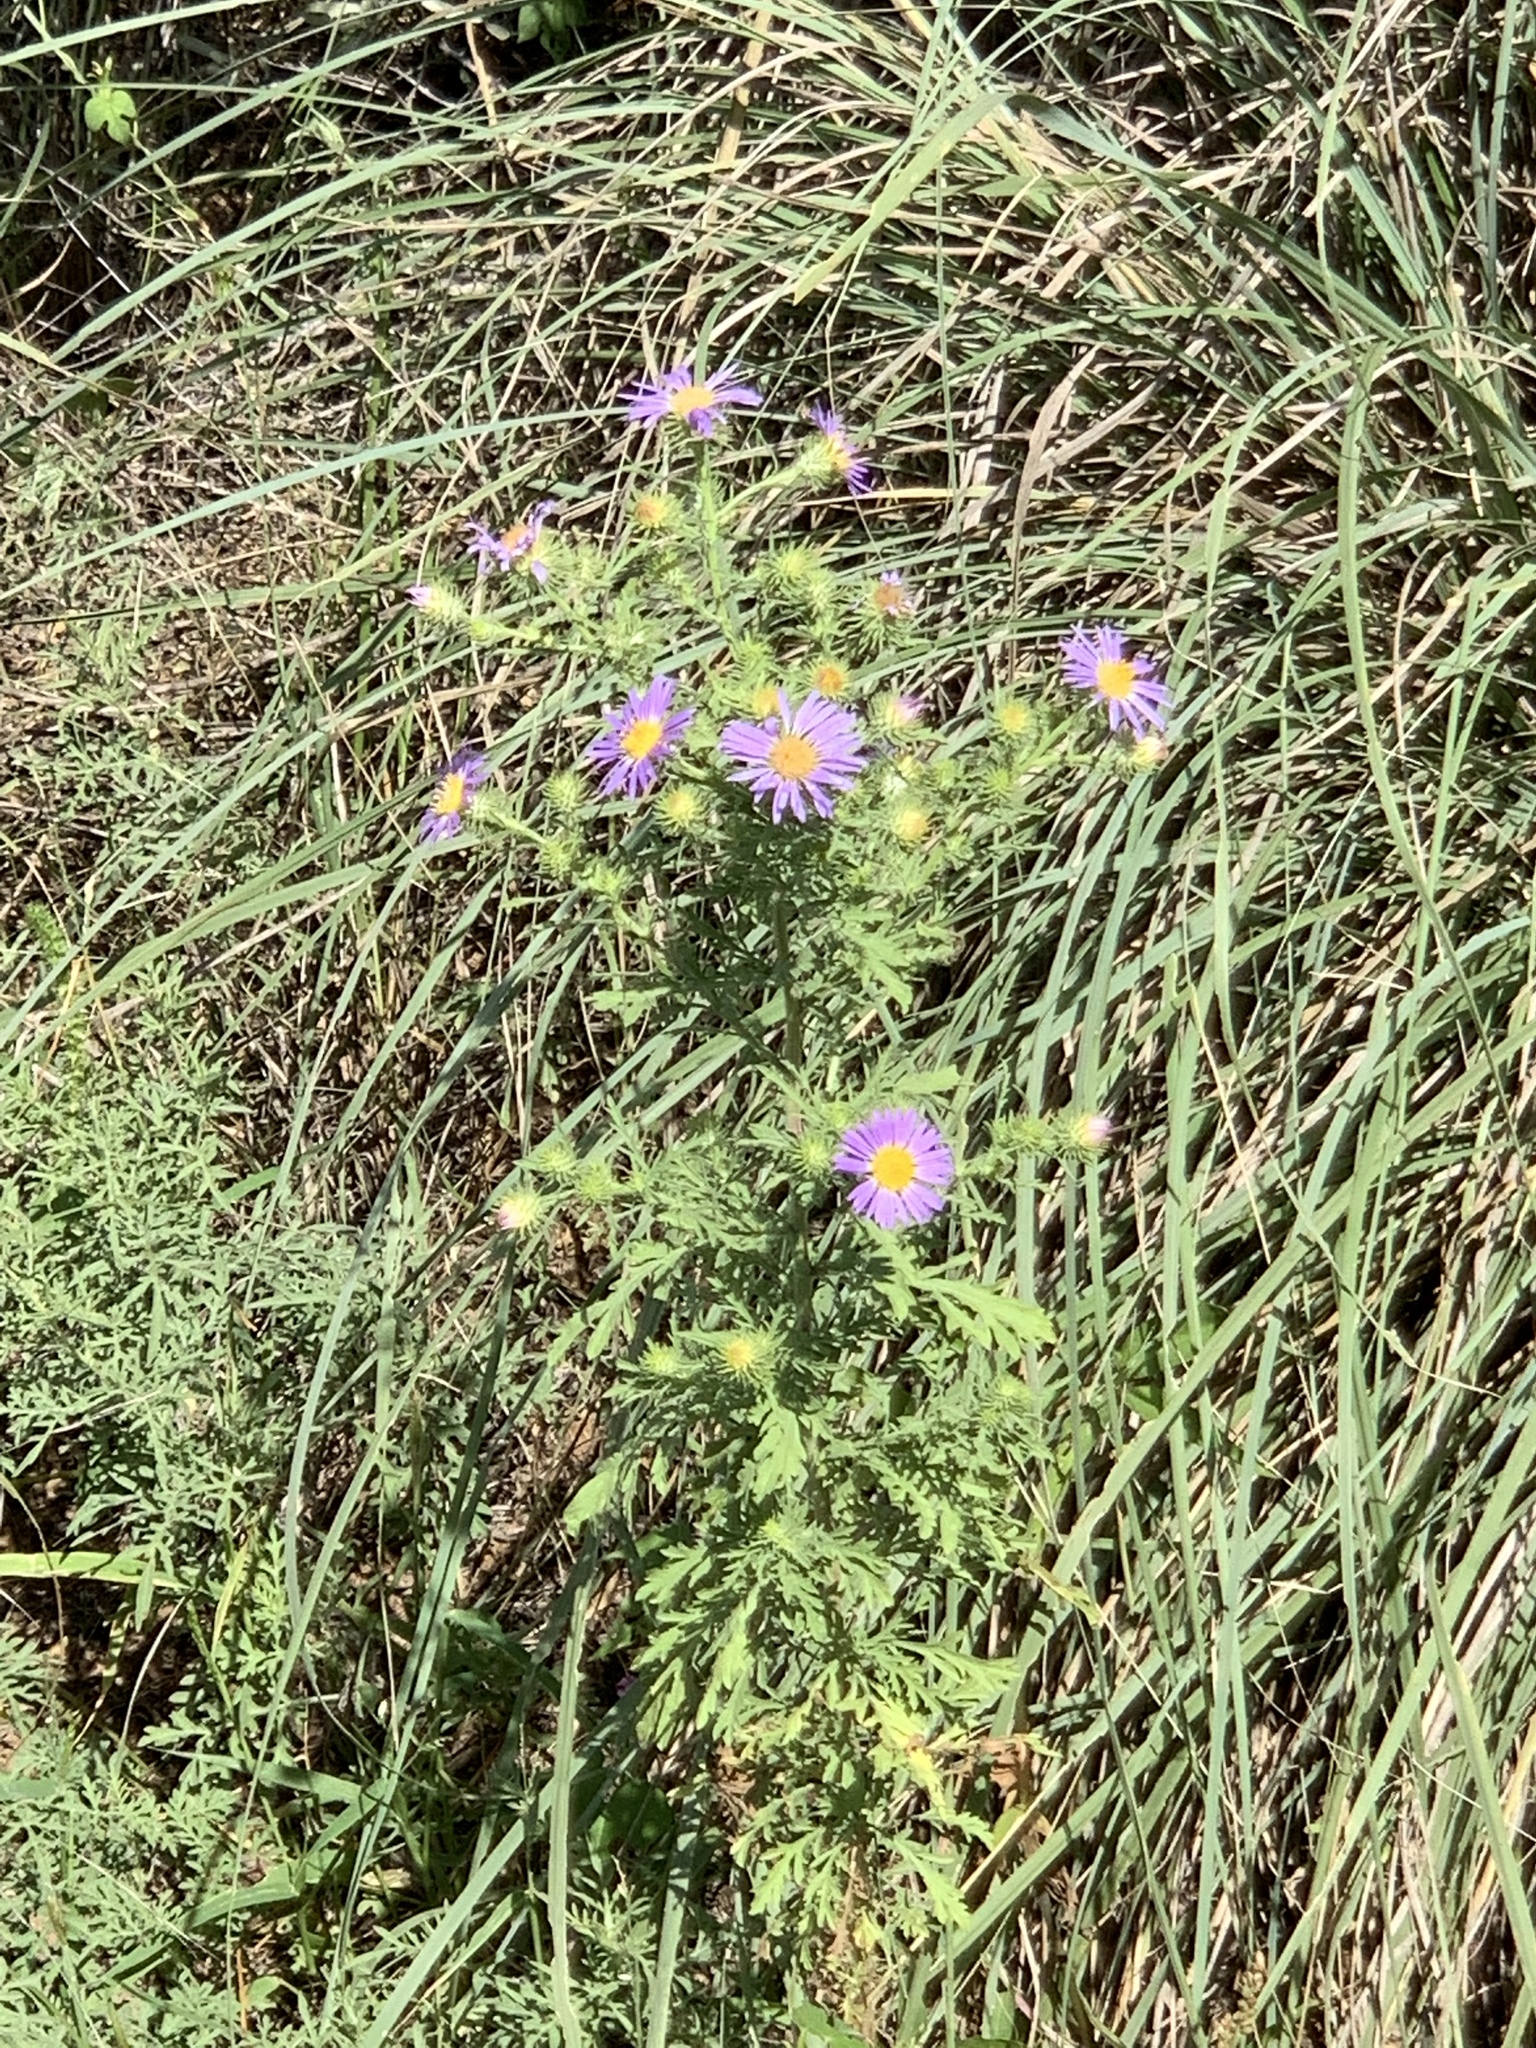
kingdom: Plantae
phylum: Tracheophyta
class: Magnoliopsida
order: Asterales
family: Asteraceae
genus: Machaeranthera
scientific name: Machaeranthera tanacetifolia
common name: Tansy-aster
